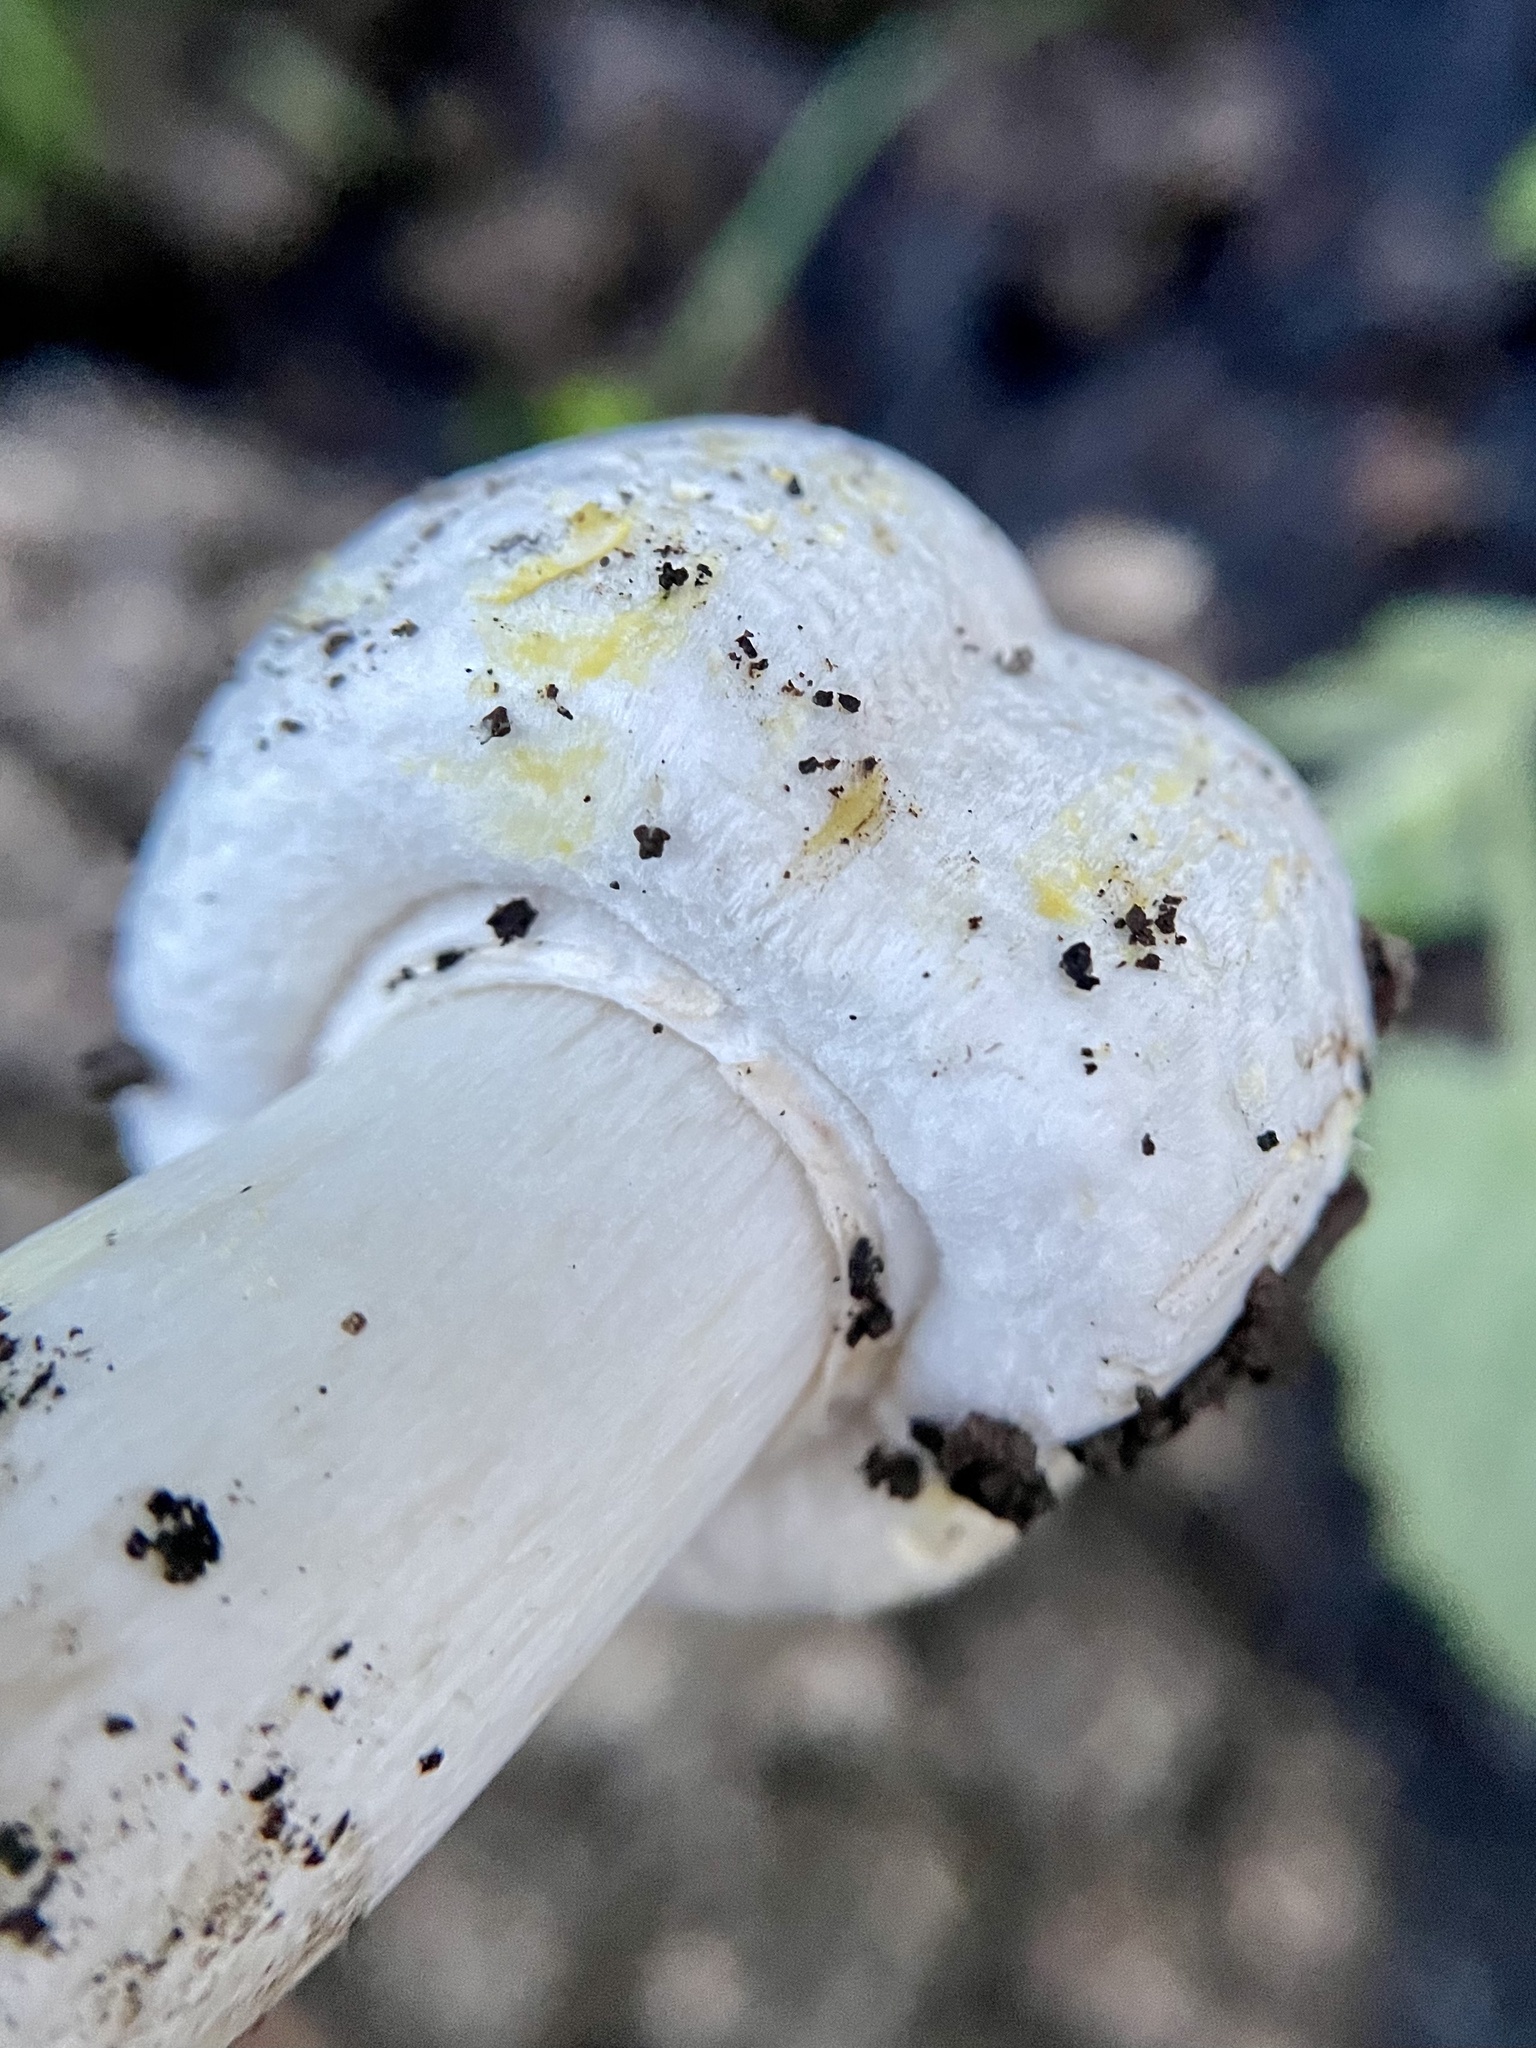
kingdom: Fungi
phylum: Basidiomycota
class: Agaricomycetes
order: Agaricales
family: Agaricaceae
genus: Agaricus
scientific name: Agaricus xanthodermus
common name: Yellow stainer
